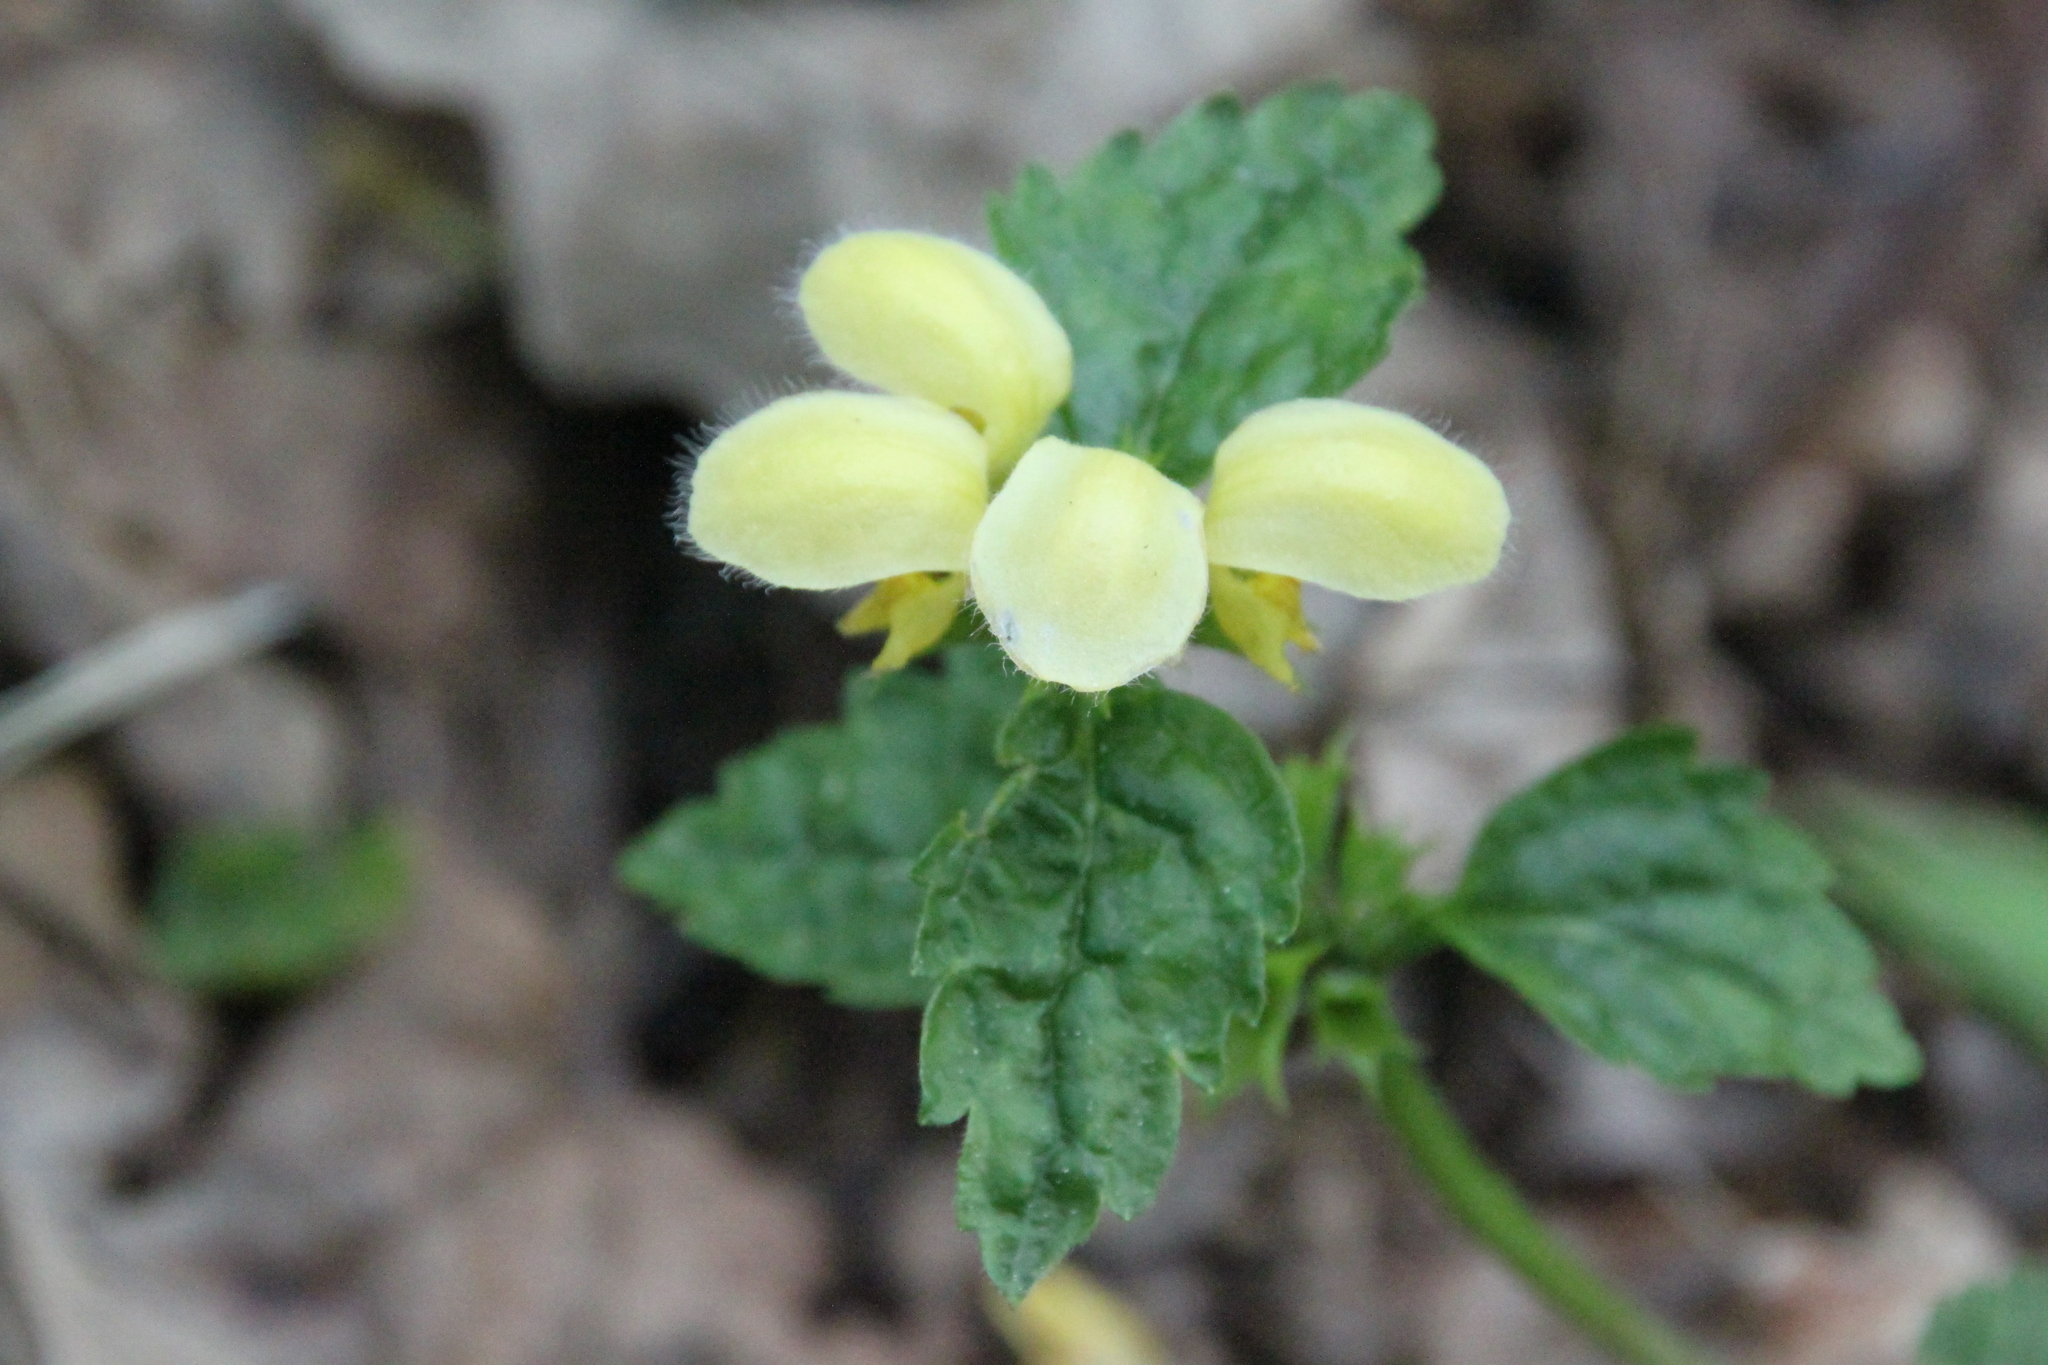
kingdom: Plantae
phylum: Tracheophyta
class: Magnoliopsida
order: Lamiales
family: Lamiaceae
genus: Lamium
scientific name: Lamium galeobdolon
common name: Yellow archangel
